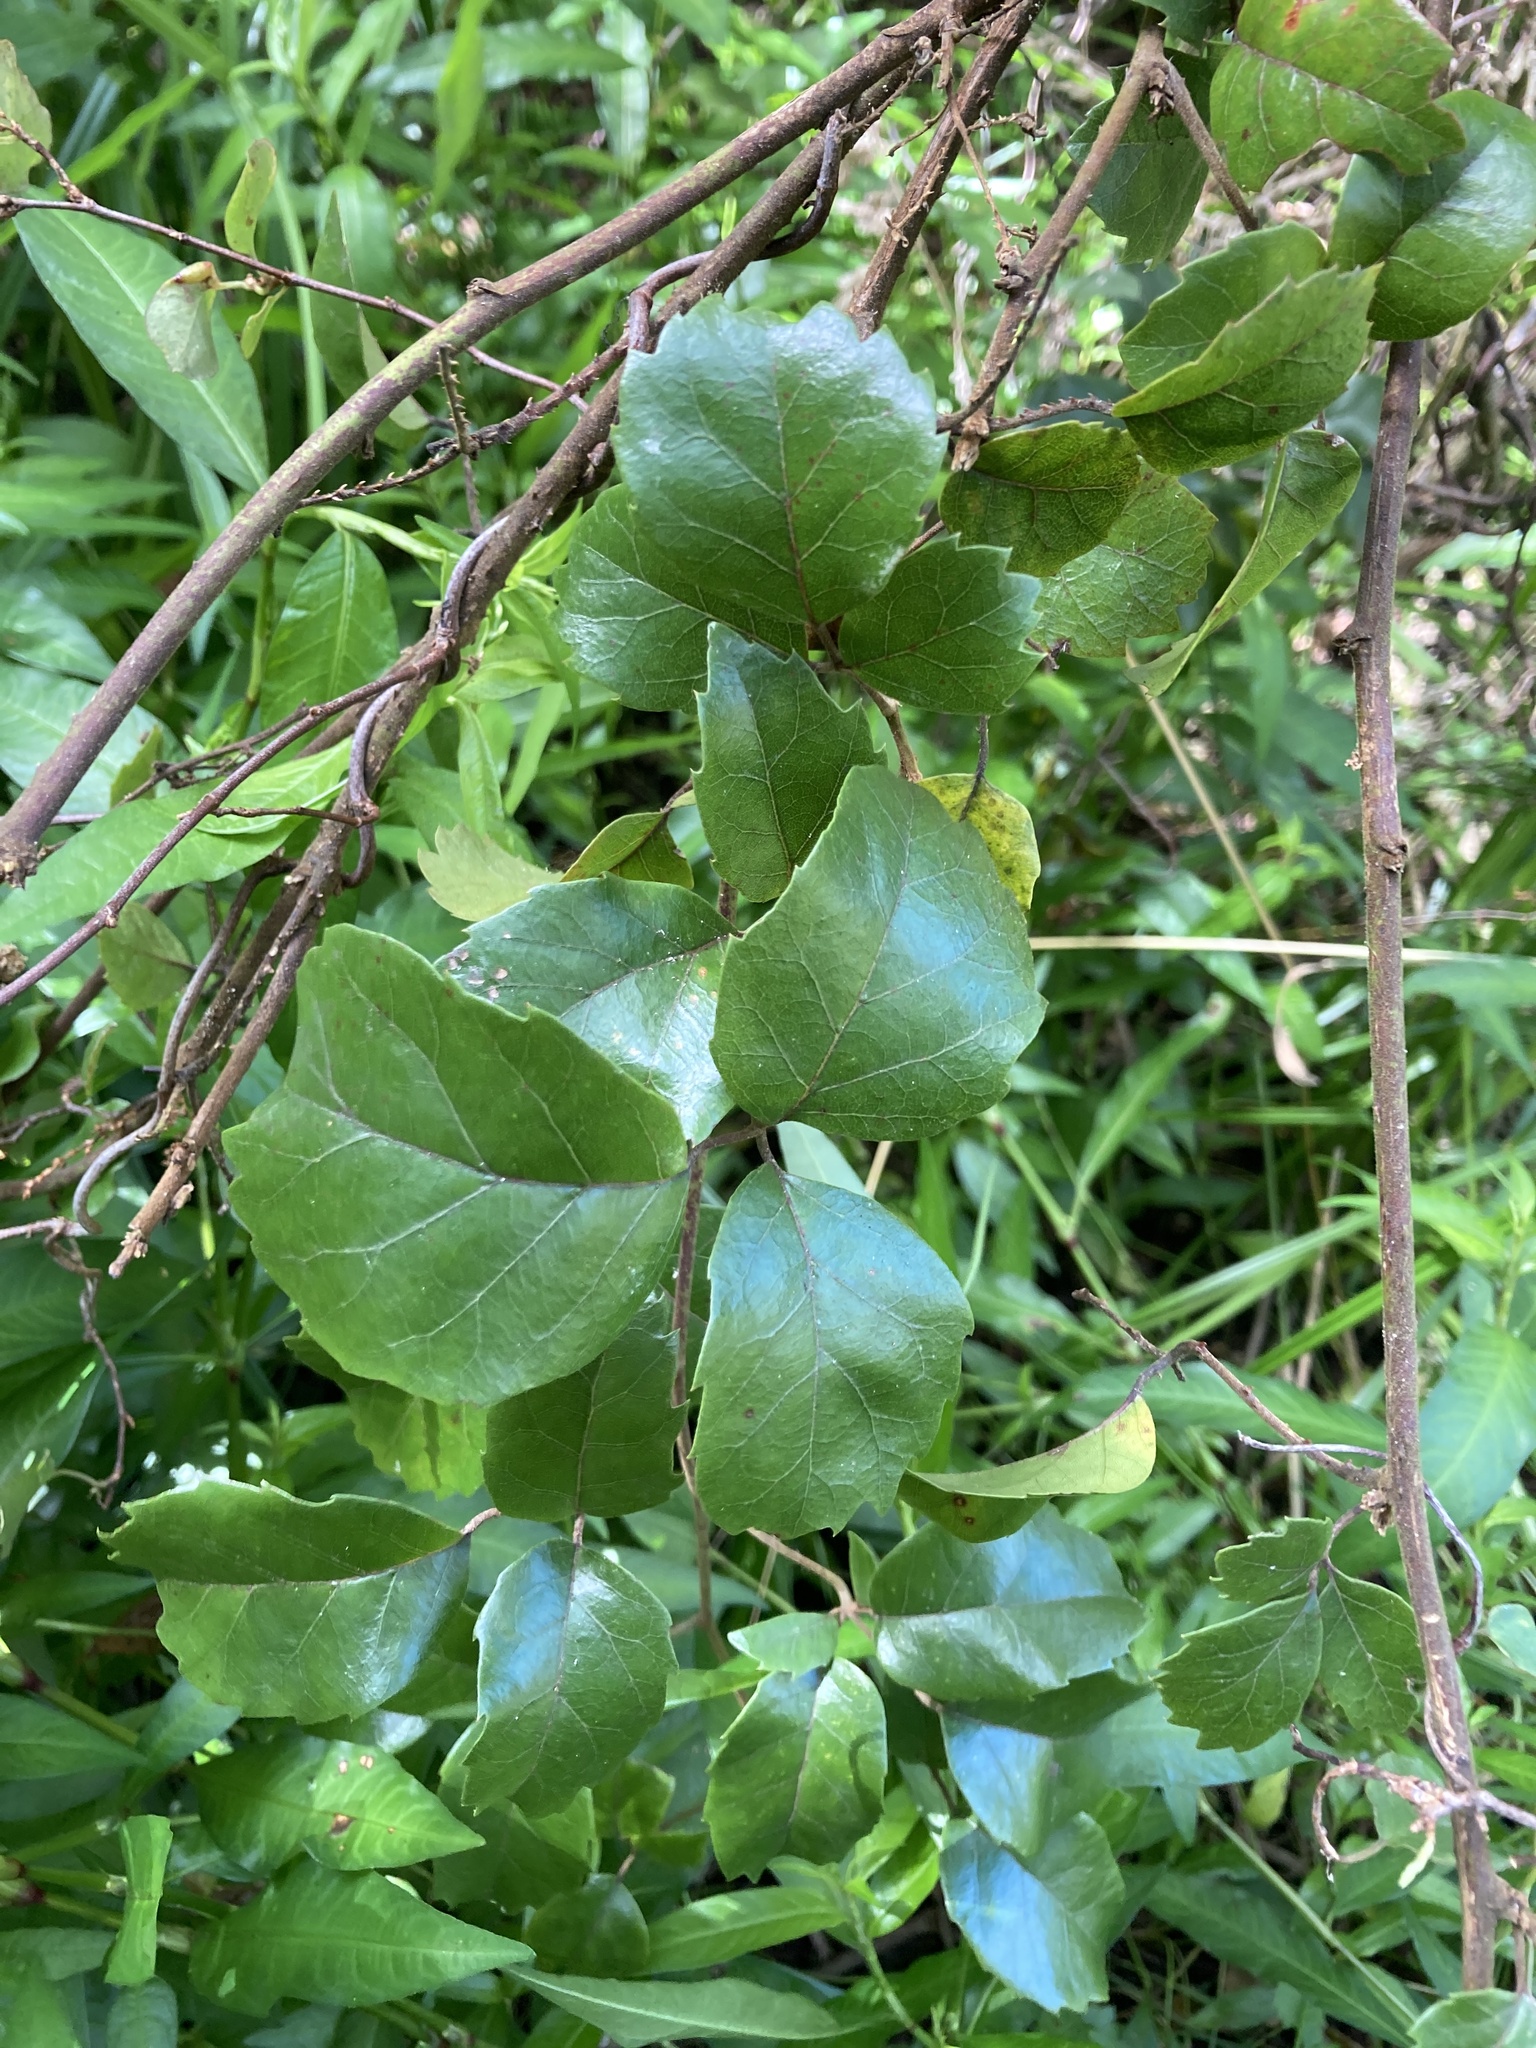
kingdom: Plantae
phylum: Tracheophyta
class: Magnoliopsida
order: Rosales
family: Rosaceae
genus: Rubus
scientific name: Rubus australis
